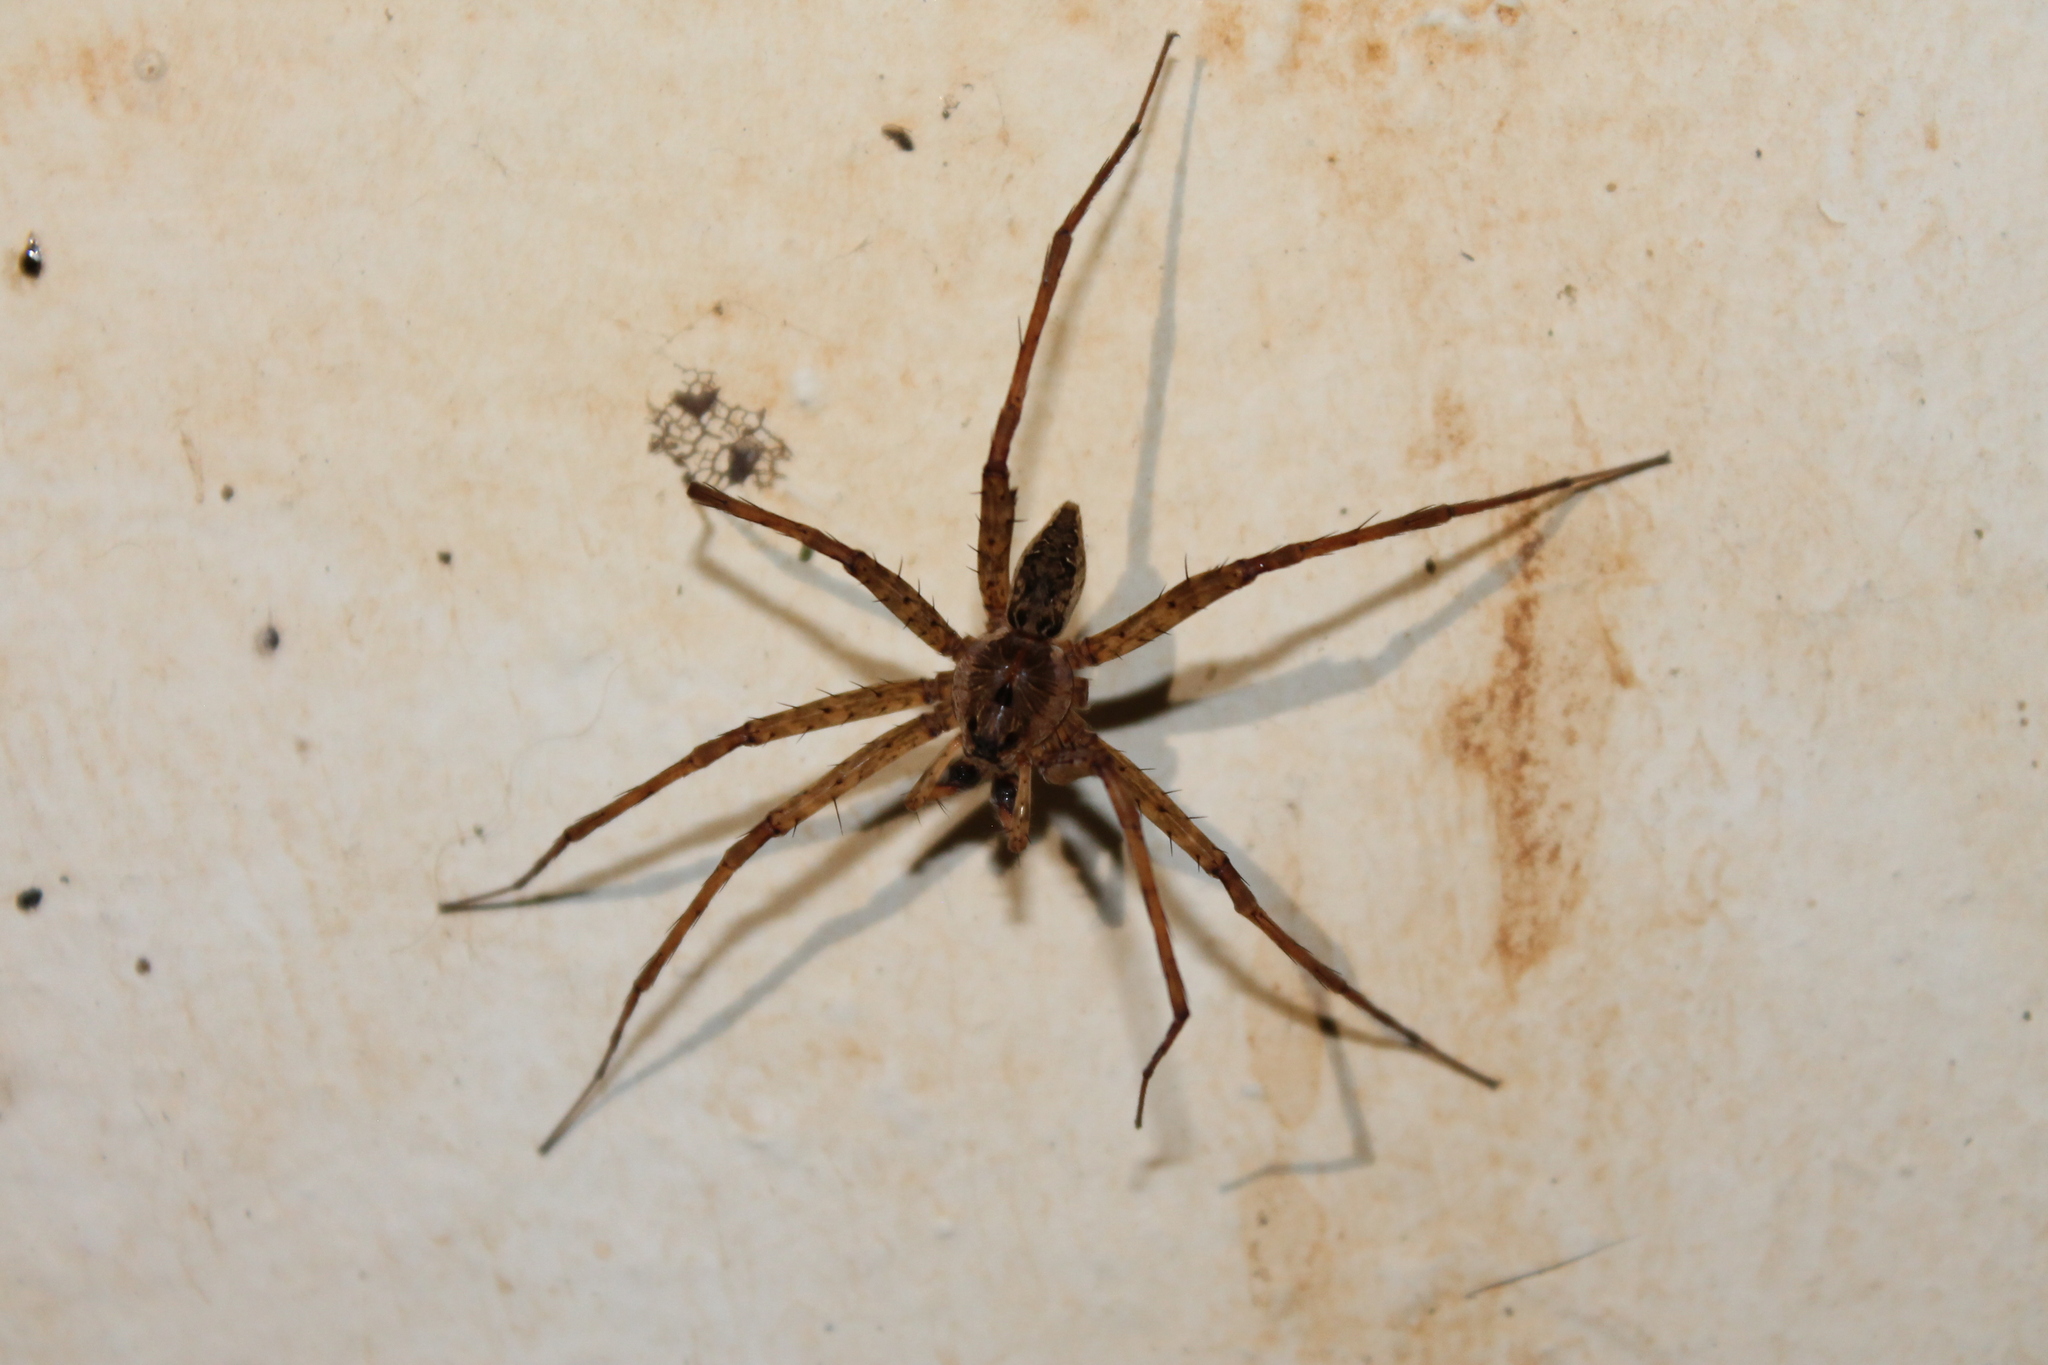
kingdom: Animalia
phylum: Arthropoda
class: Arachnida
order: Araneae
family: Pisauridae
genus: Dolomedes
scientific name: Dolomedes vittatus
